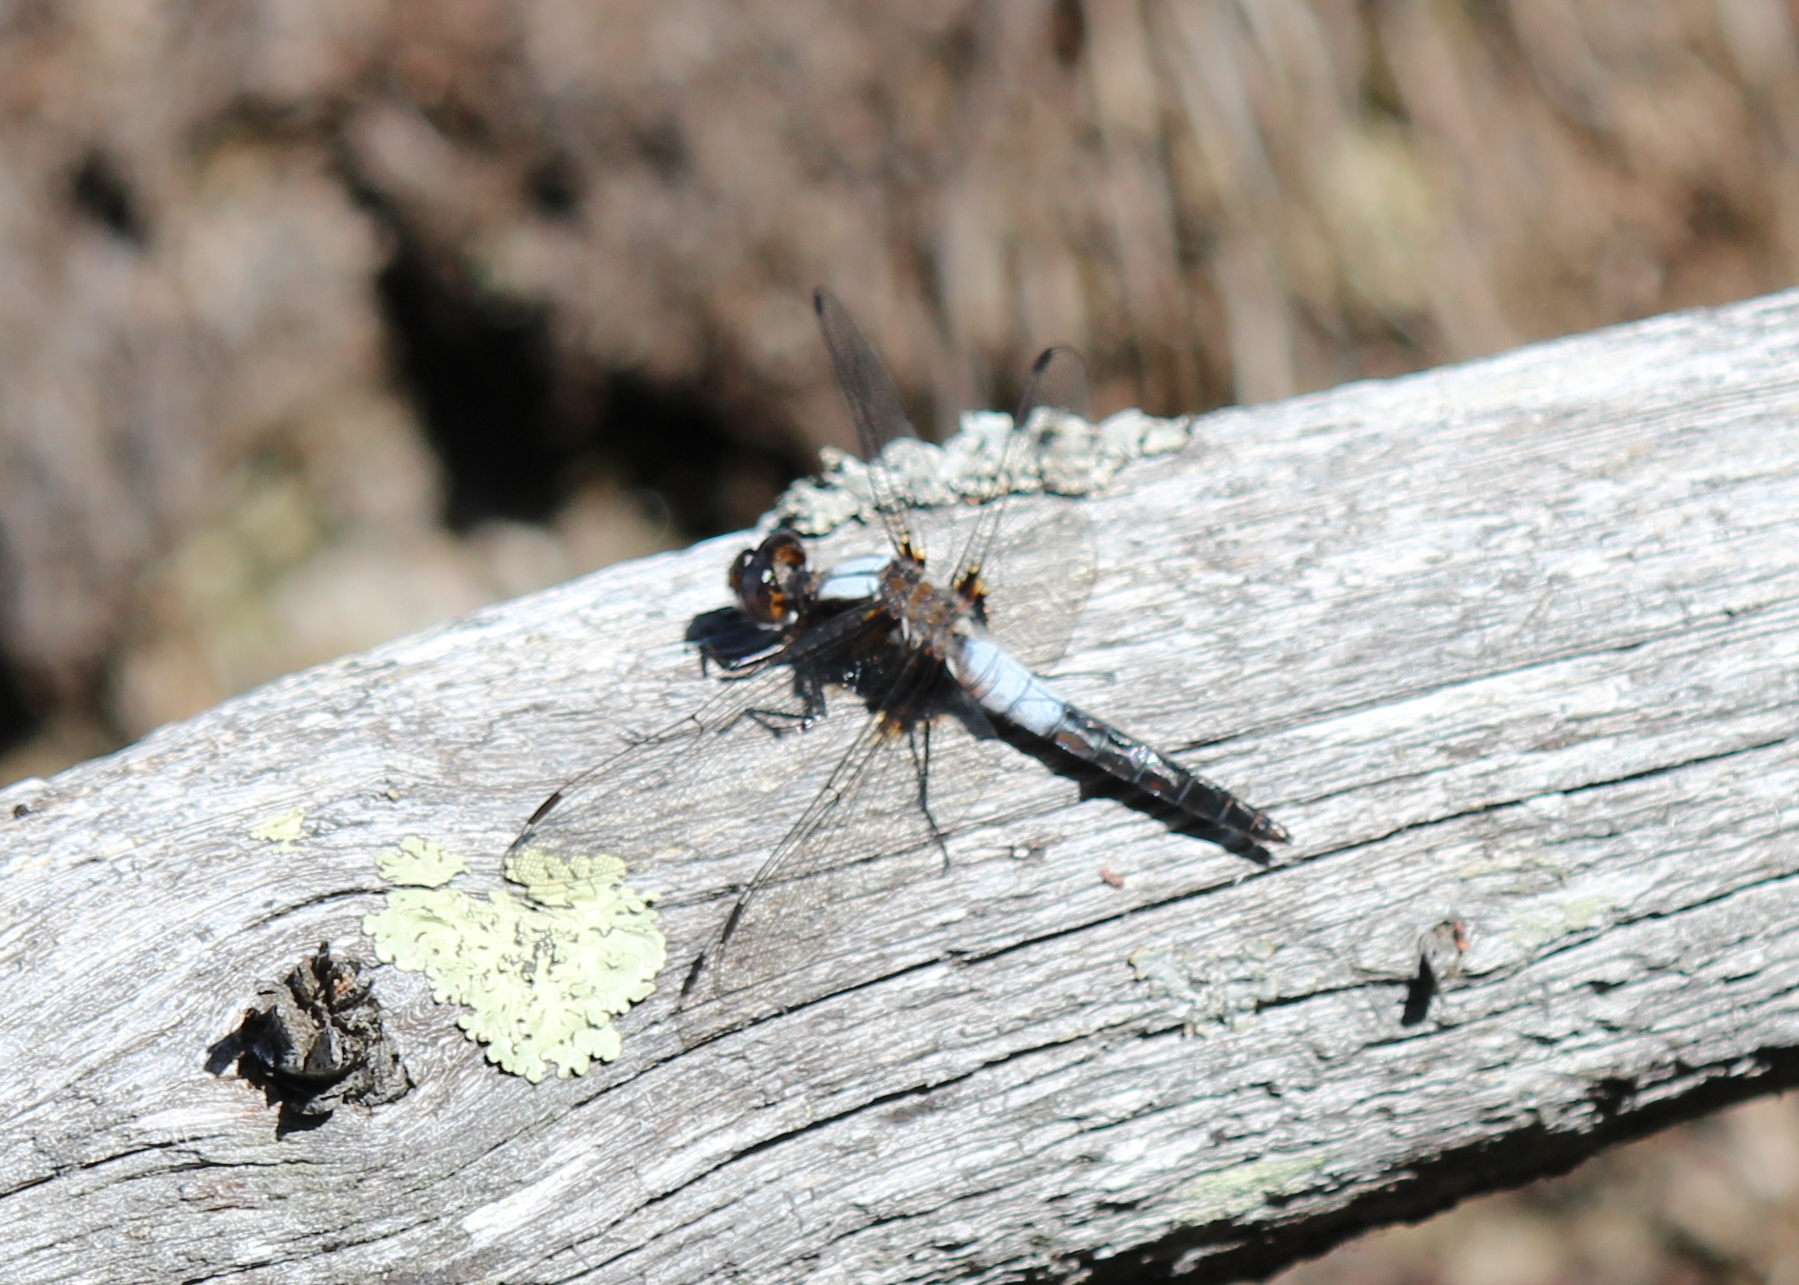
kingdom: Animalia
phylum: Arthropoda
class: Insecta
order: Odonata
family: Libellulidae
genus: Ladona
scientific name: Ladona julia
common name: Chalk-fronted corporal
